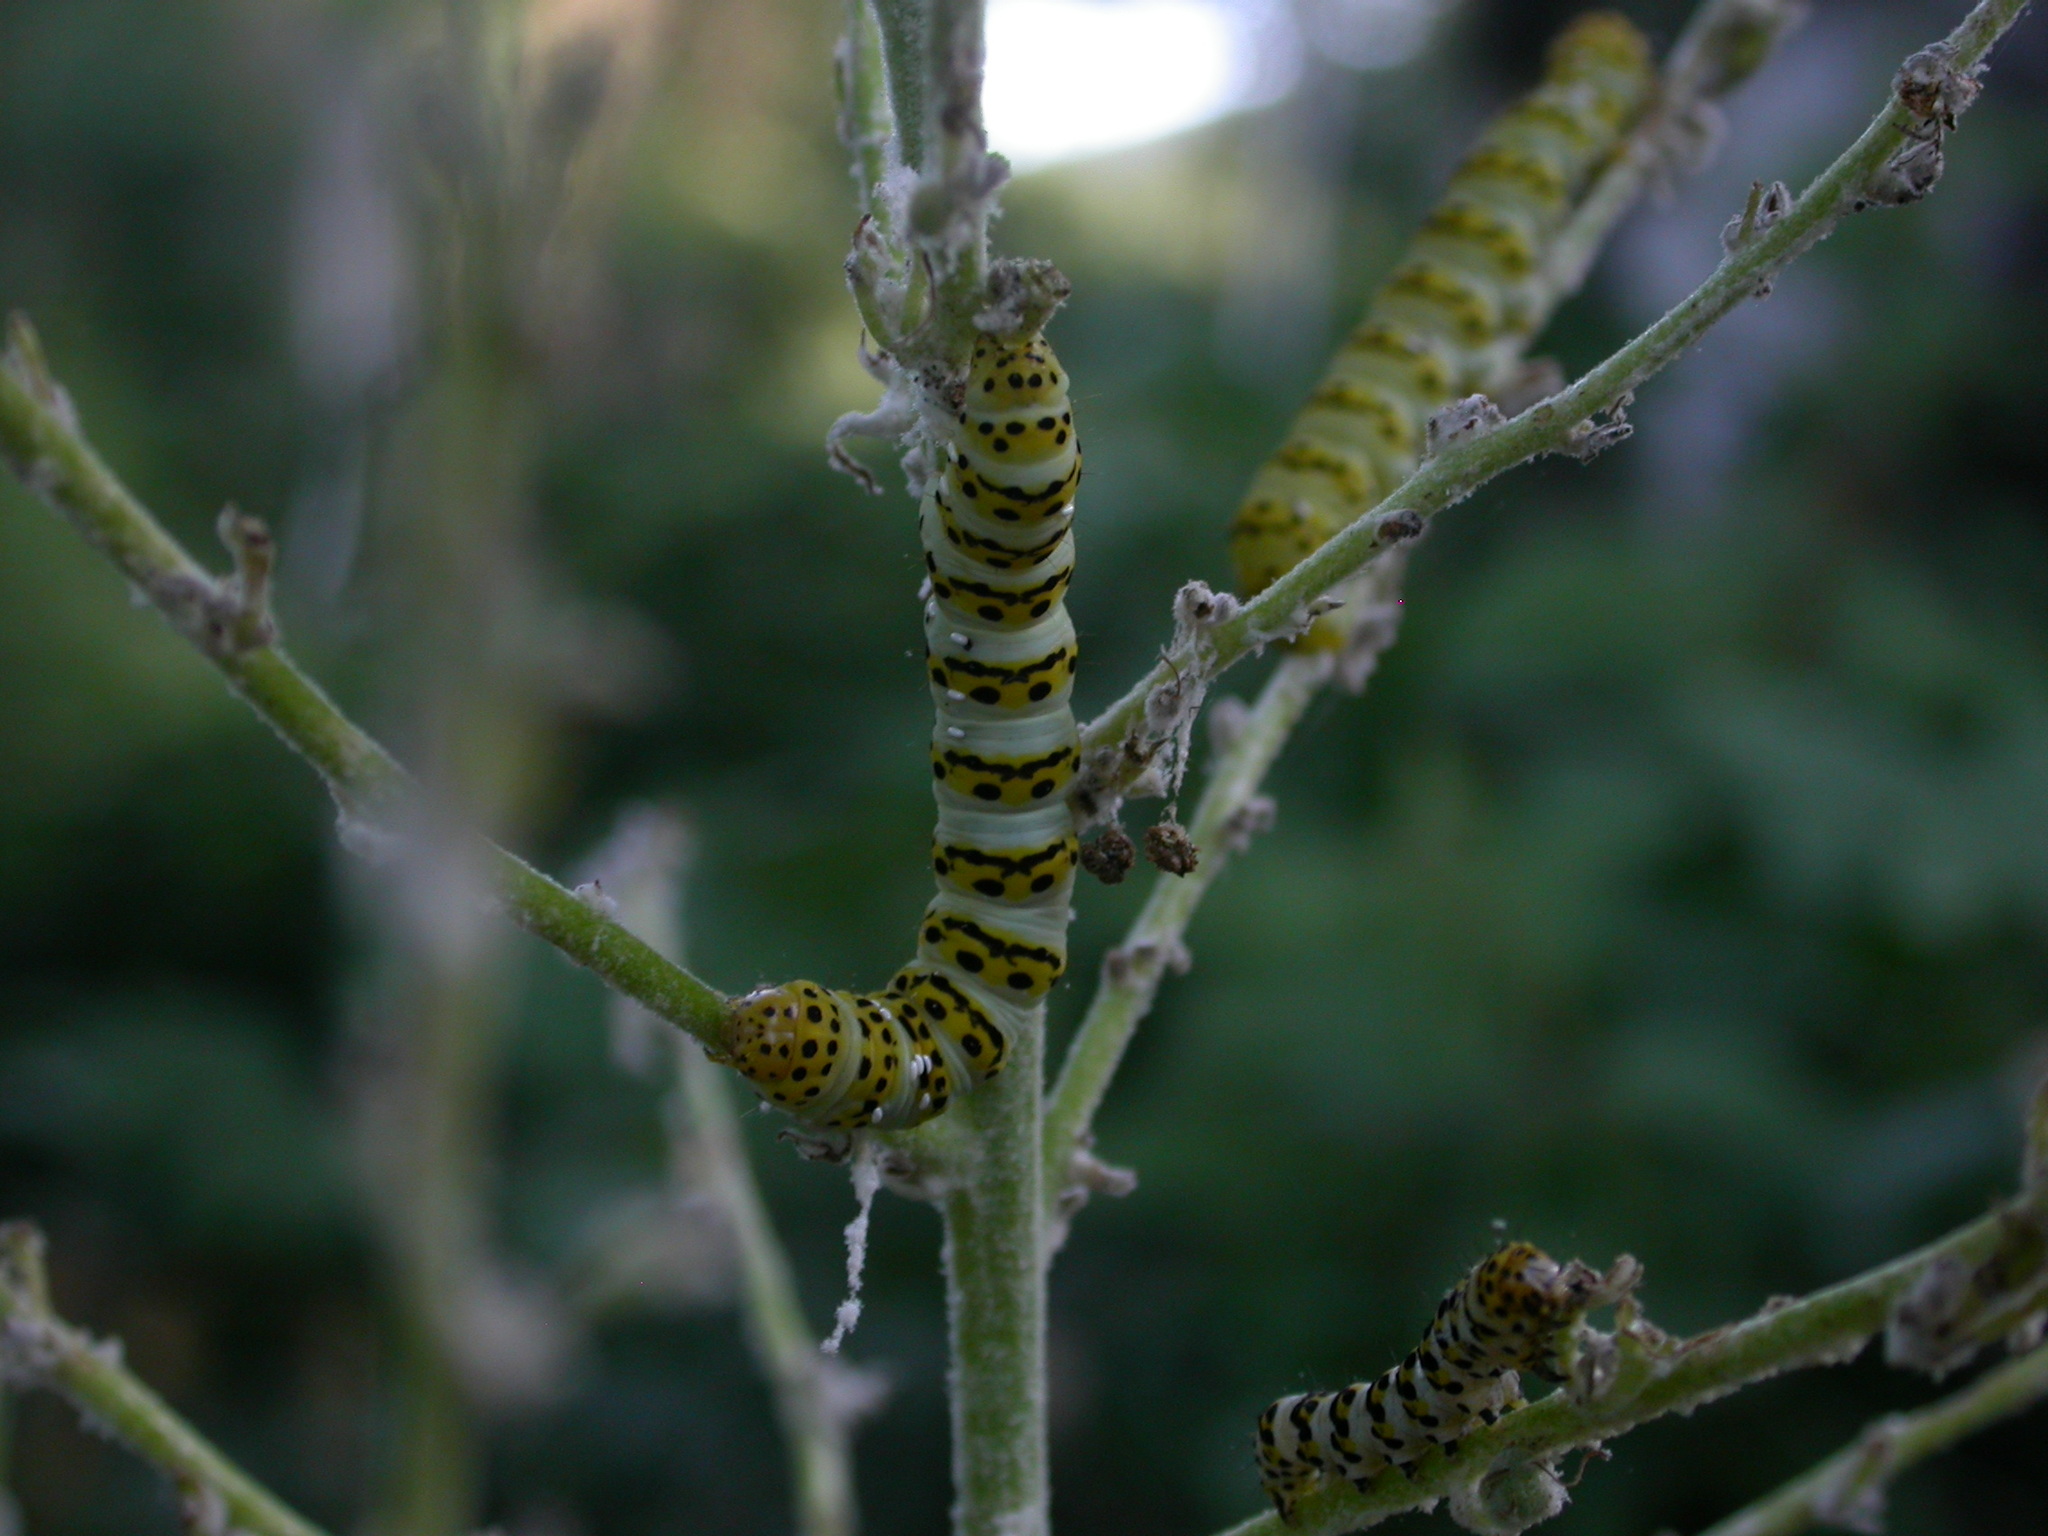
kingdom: Animalia
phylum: Arthropoda
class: Insecta
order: Lepidoptera
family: Noctuidae
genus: Cucullia
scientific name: Cucullia lychnitis
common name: Striped lychnis
